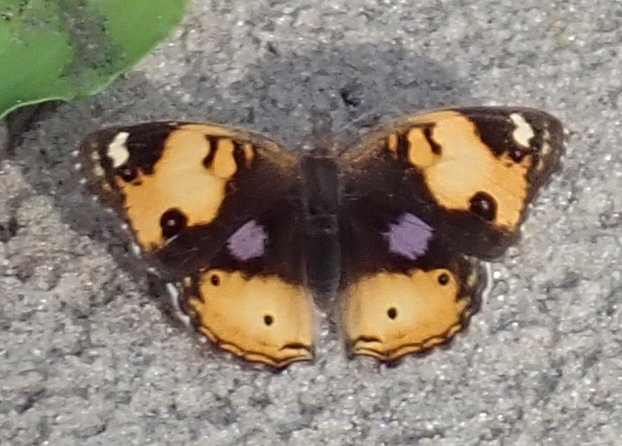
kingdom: Animalia
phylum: Arthropoda
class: Insecta
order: Lepidoptera
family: Nymphalidae
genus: Junonia
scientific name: Junonia hierta
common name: Yellow pansy
